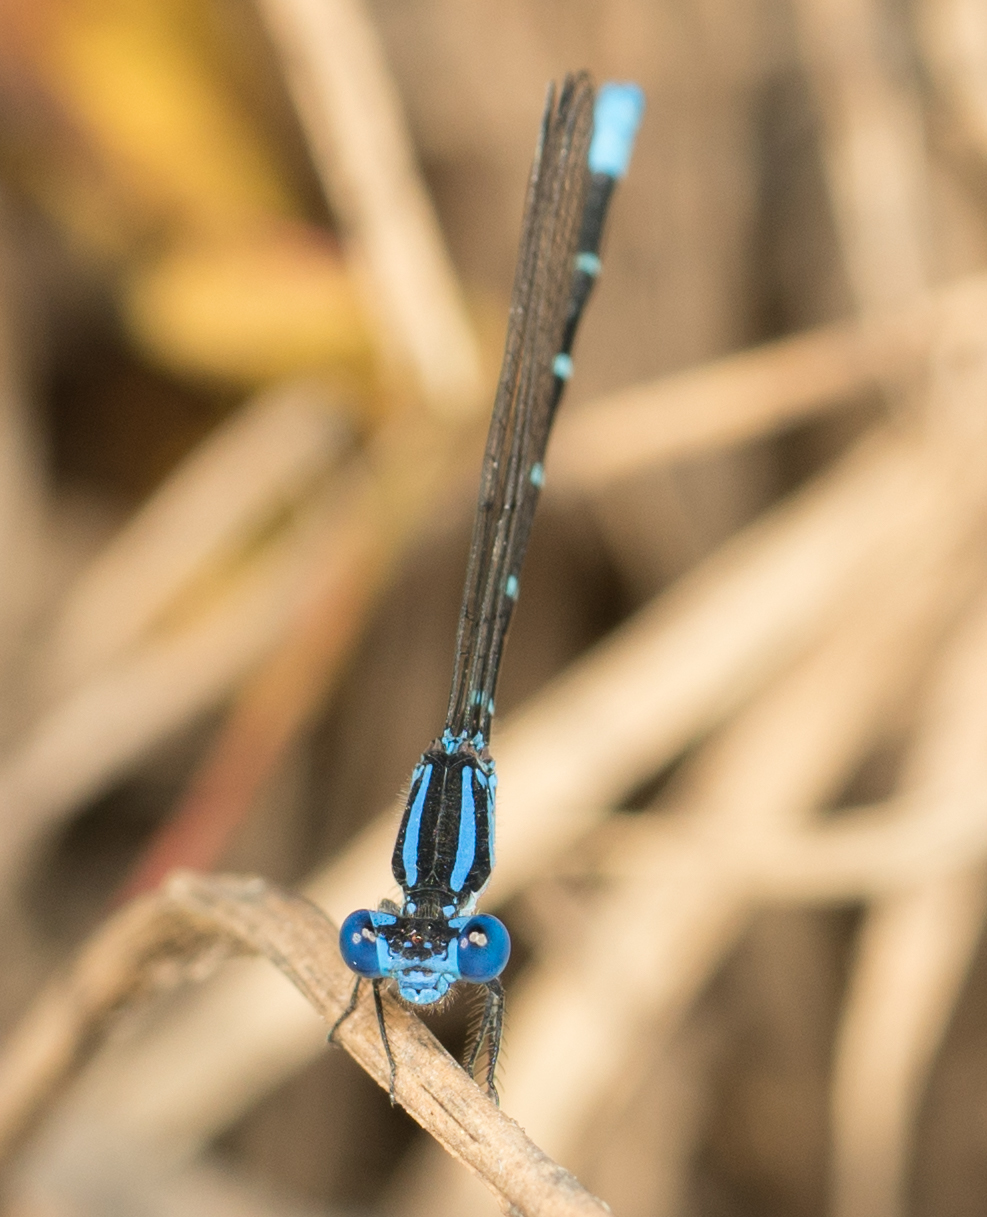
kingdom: Animalia
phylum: Arthropoda
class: Insecta
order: Odonata
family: Coenagrionidae
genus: Argia
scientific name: Argia sedula
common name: Blue-ringed dancer
